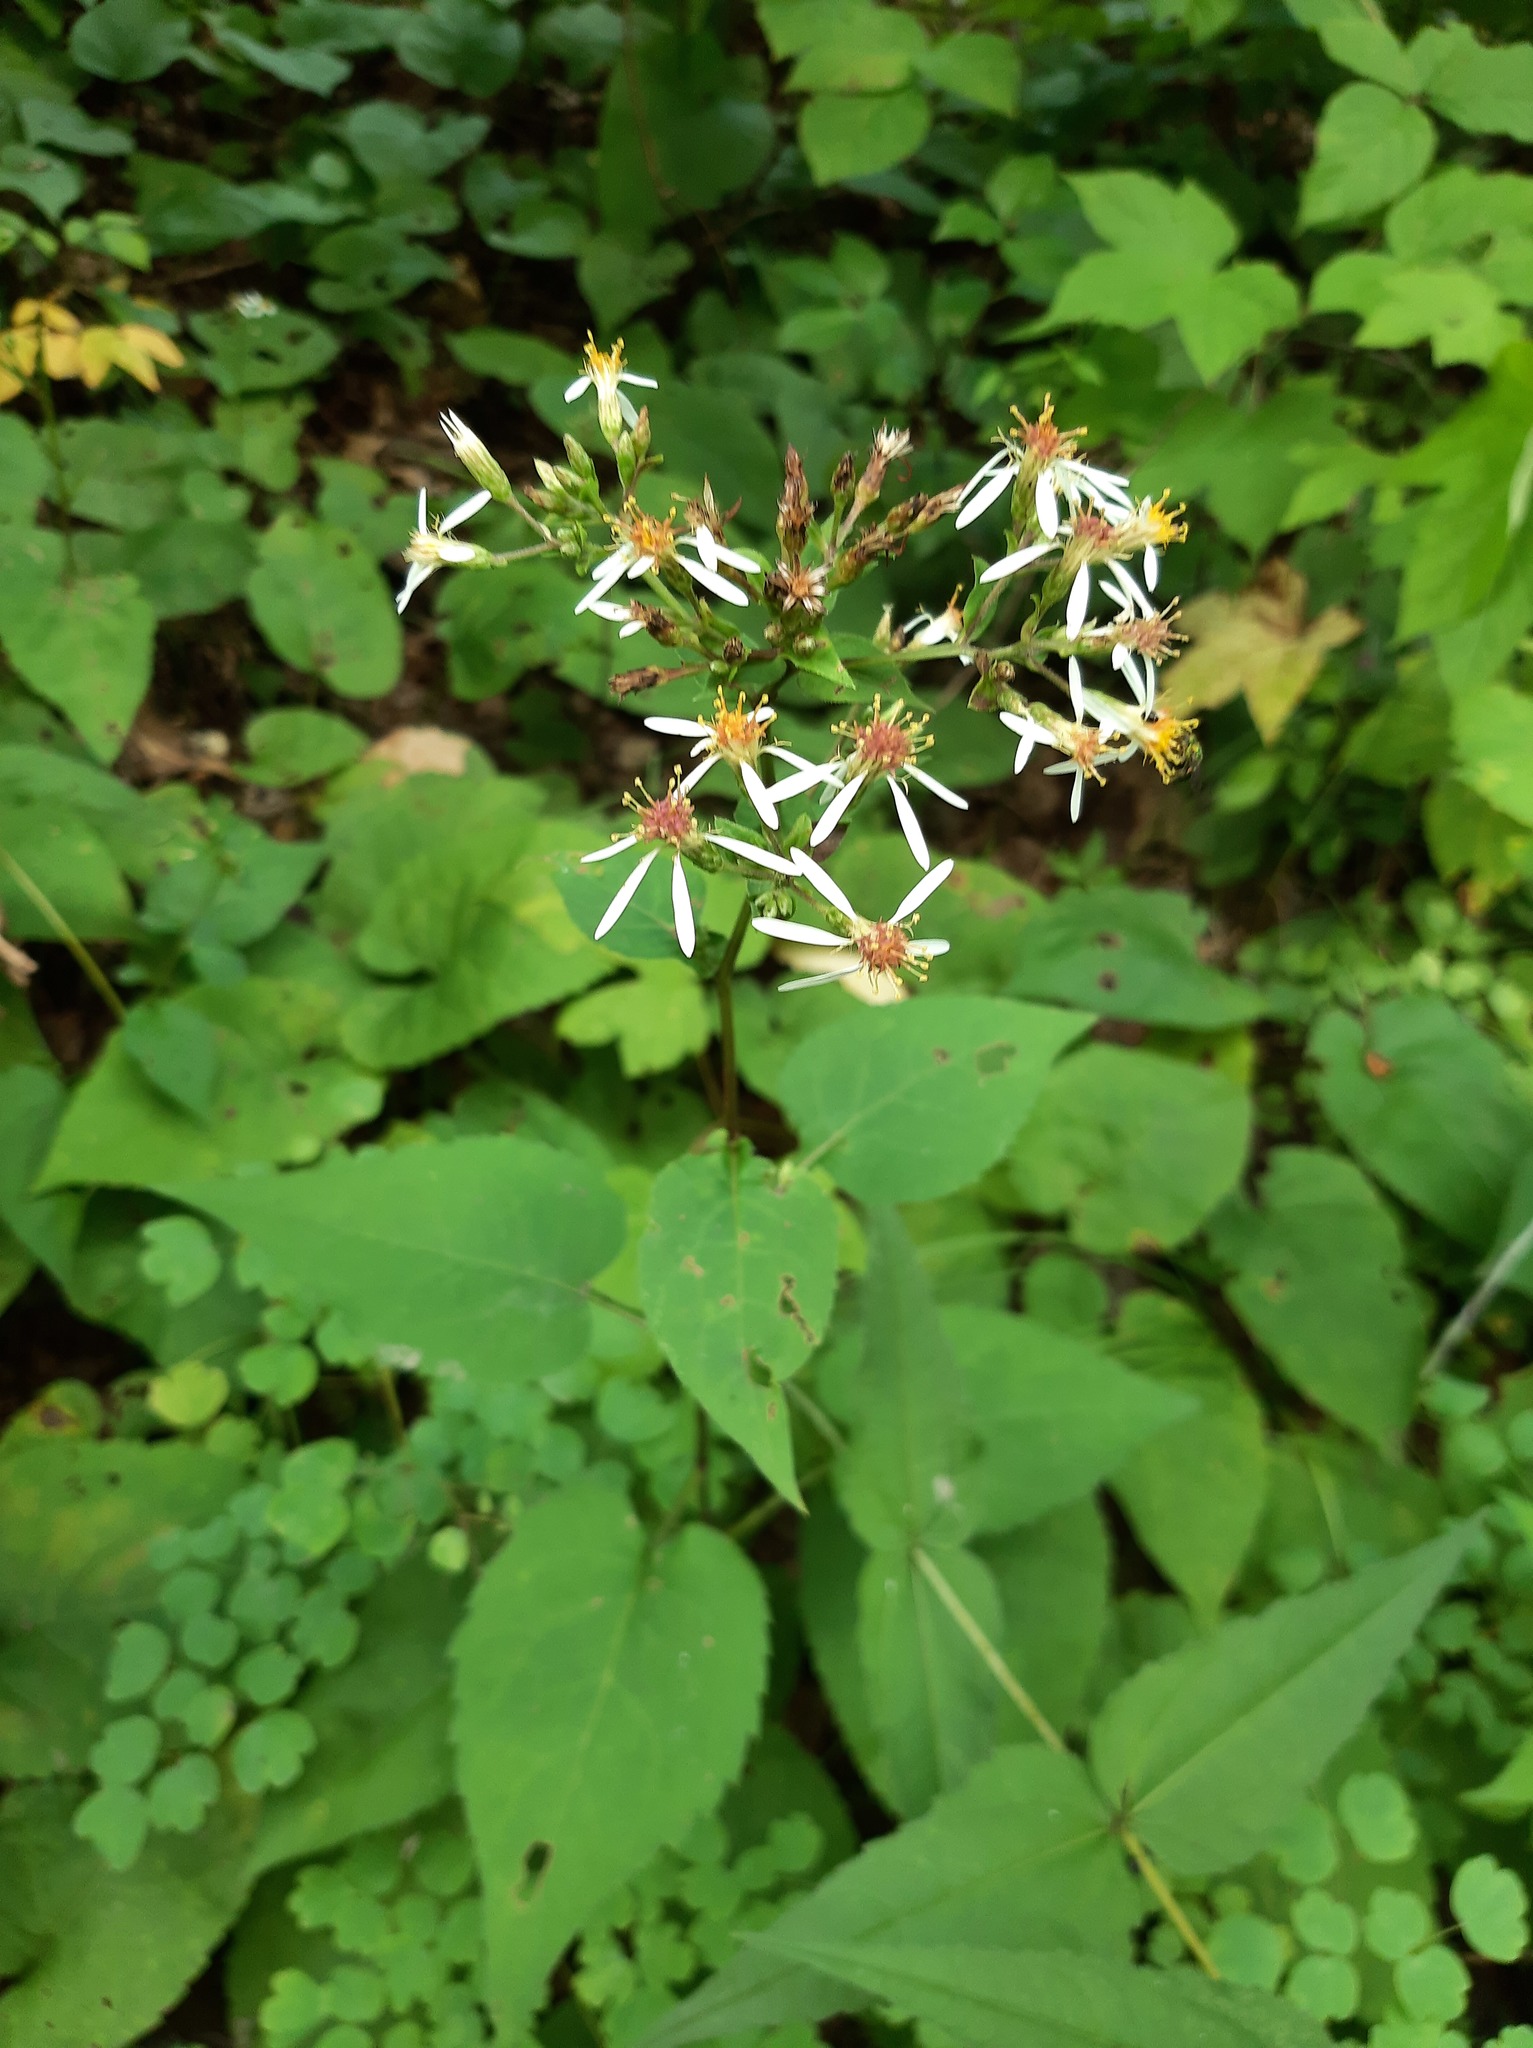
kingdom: Plantae
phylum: Tracheophyta
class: Magnoliopsida
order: Asterales
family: Asteraceae
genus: Eurybia
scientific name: Eurybia divaricata
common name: White wood aster
